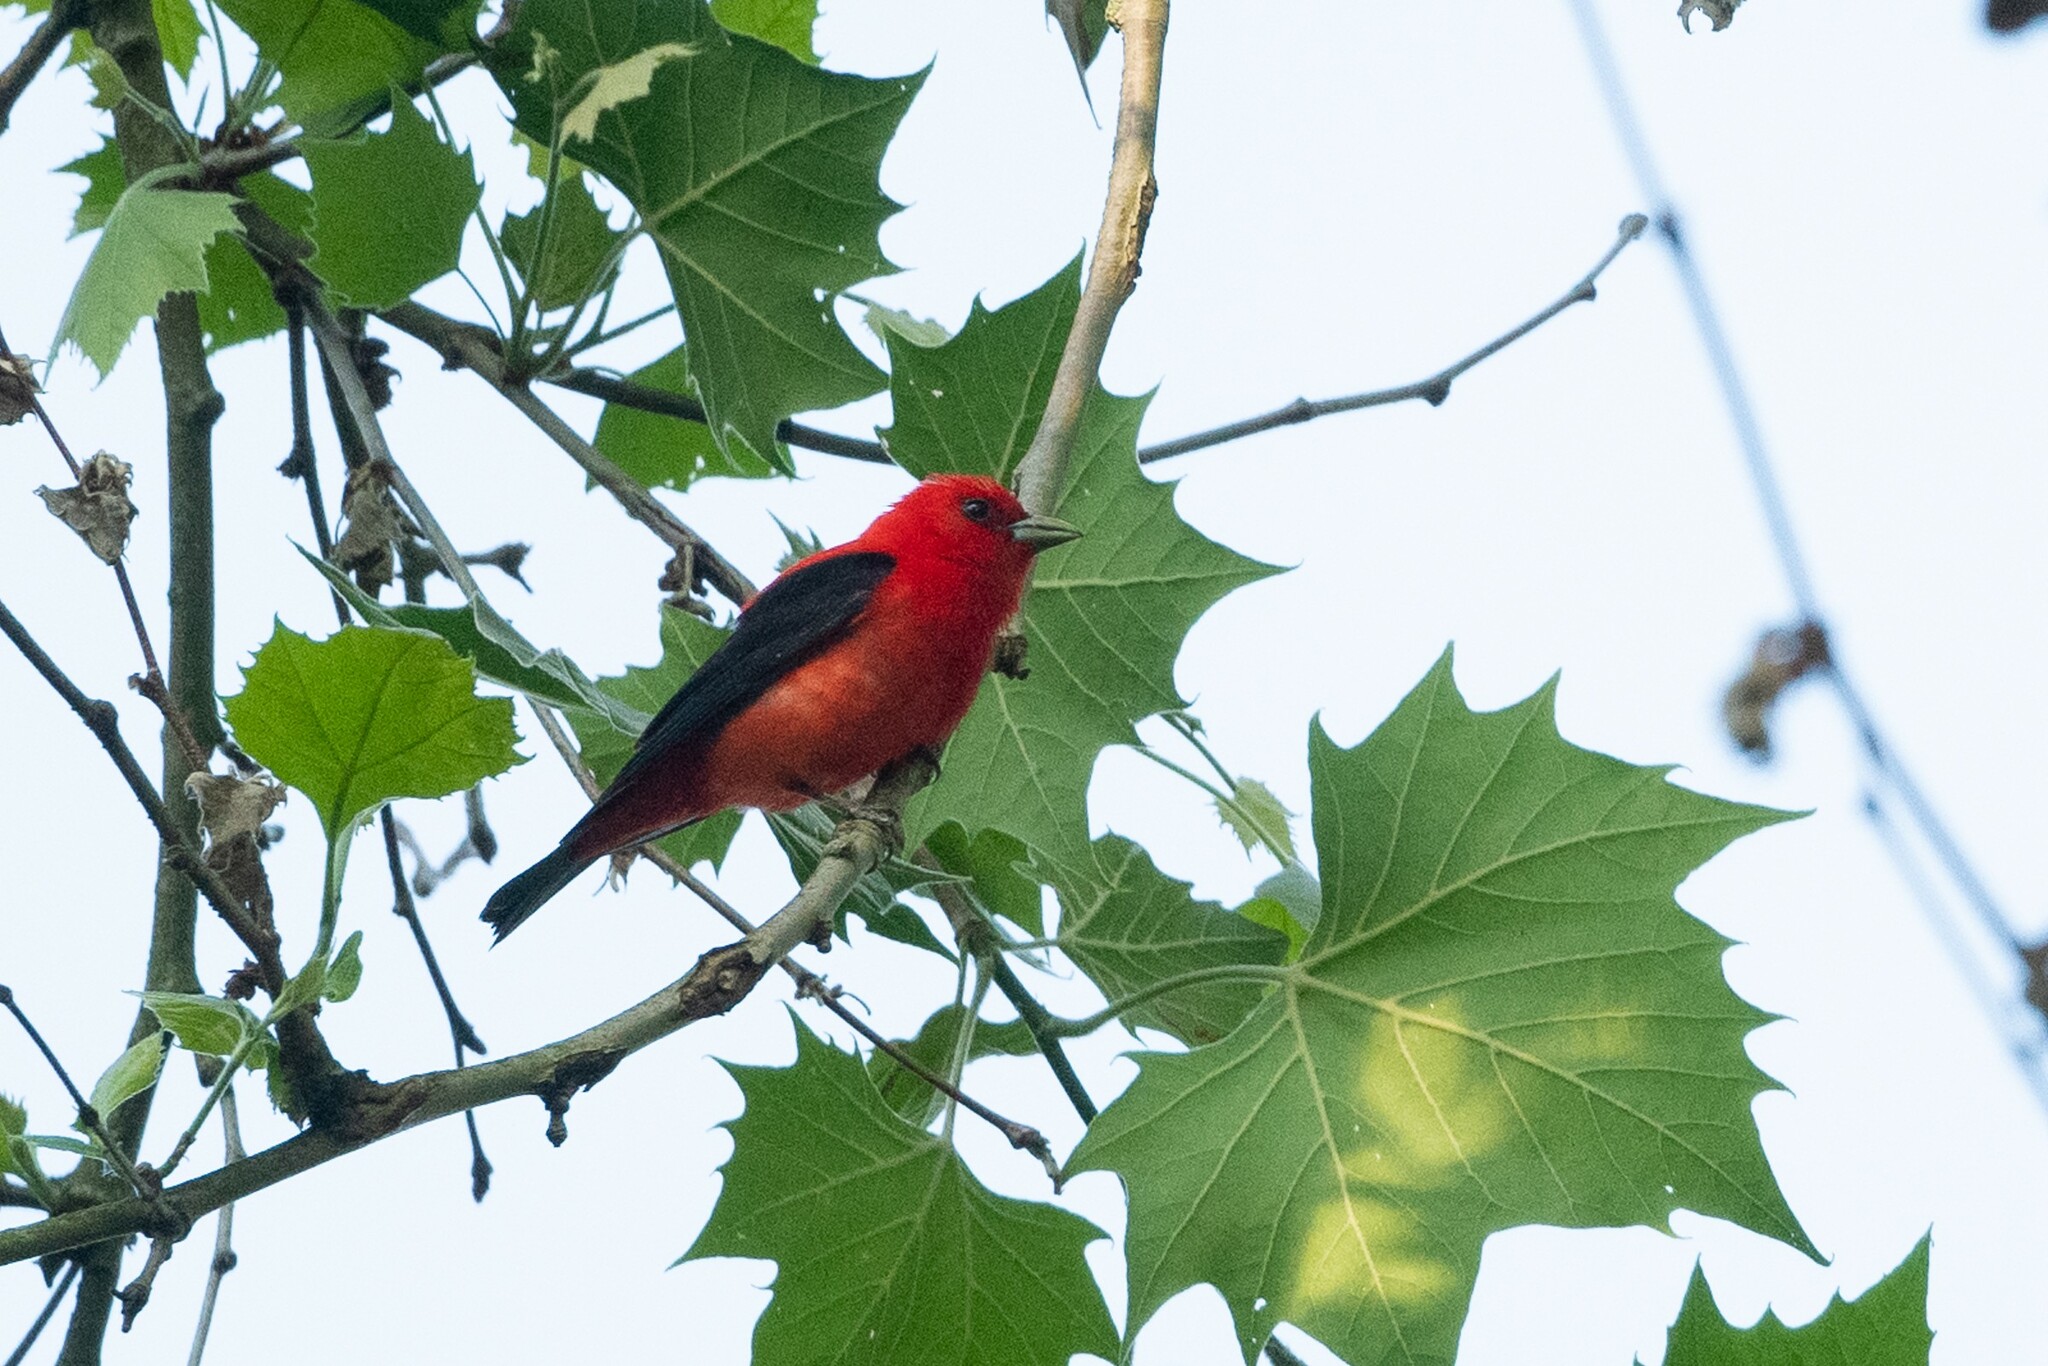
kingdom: Animalia
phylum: Chordata
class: Aves
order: Passeriformes
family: Cardinalidae
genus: Piranga
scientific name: Piranga olivacea
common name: Scarlet tanager
